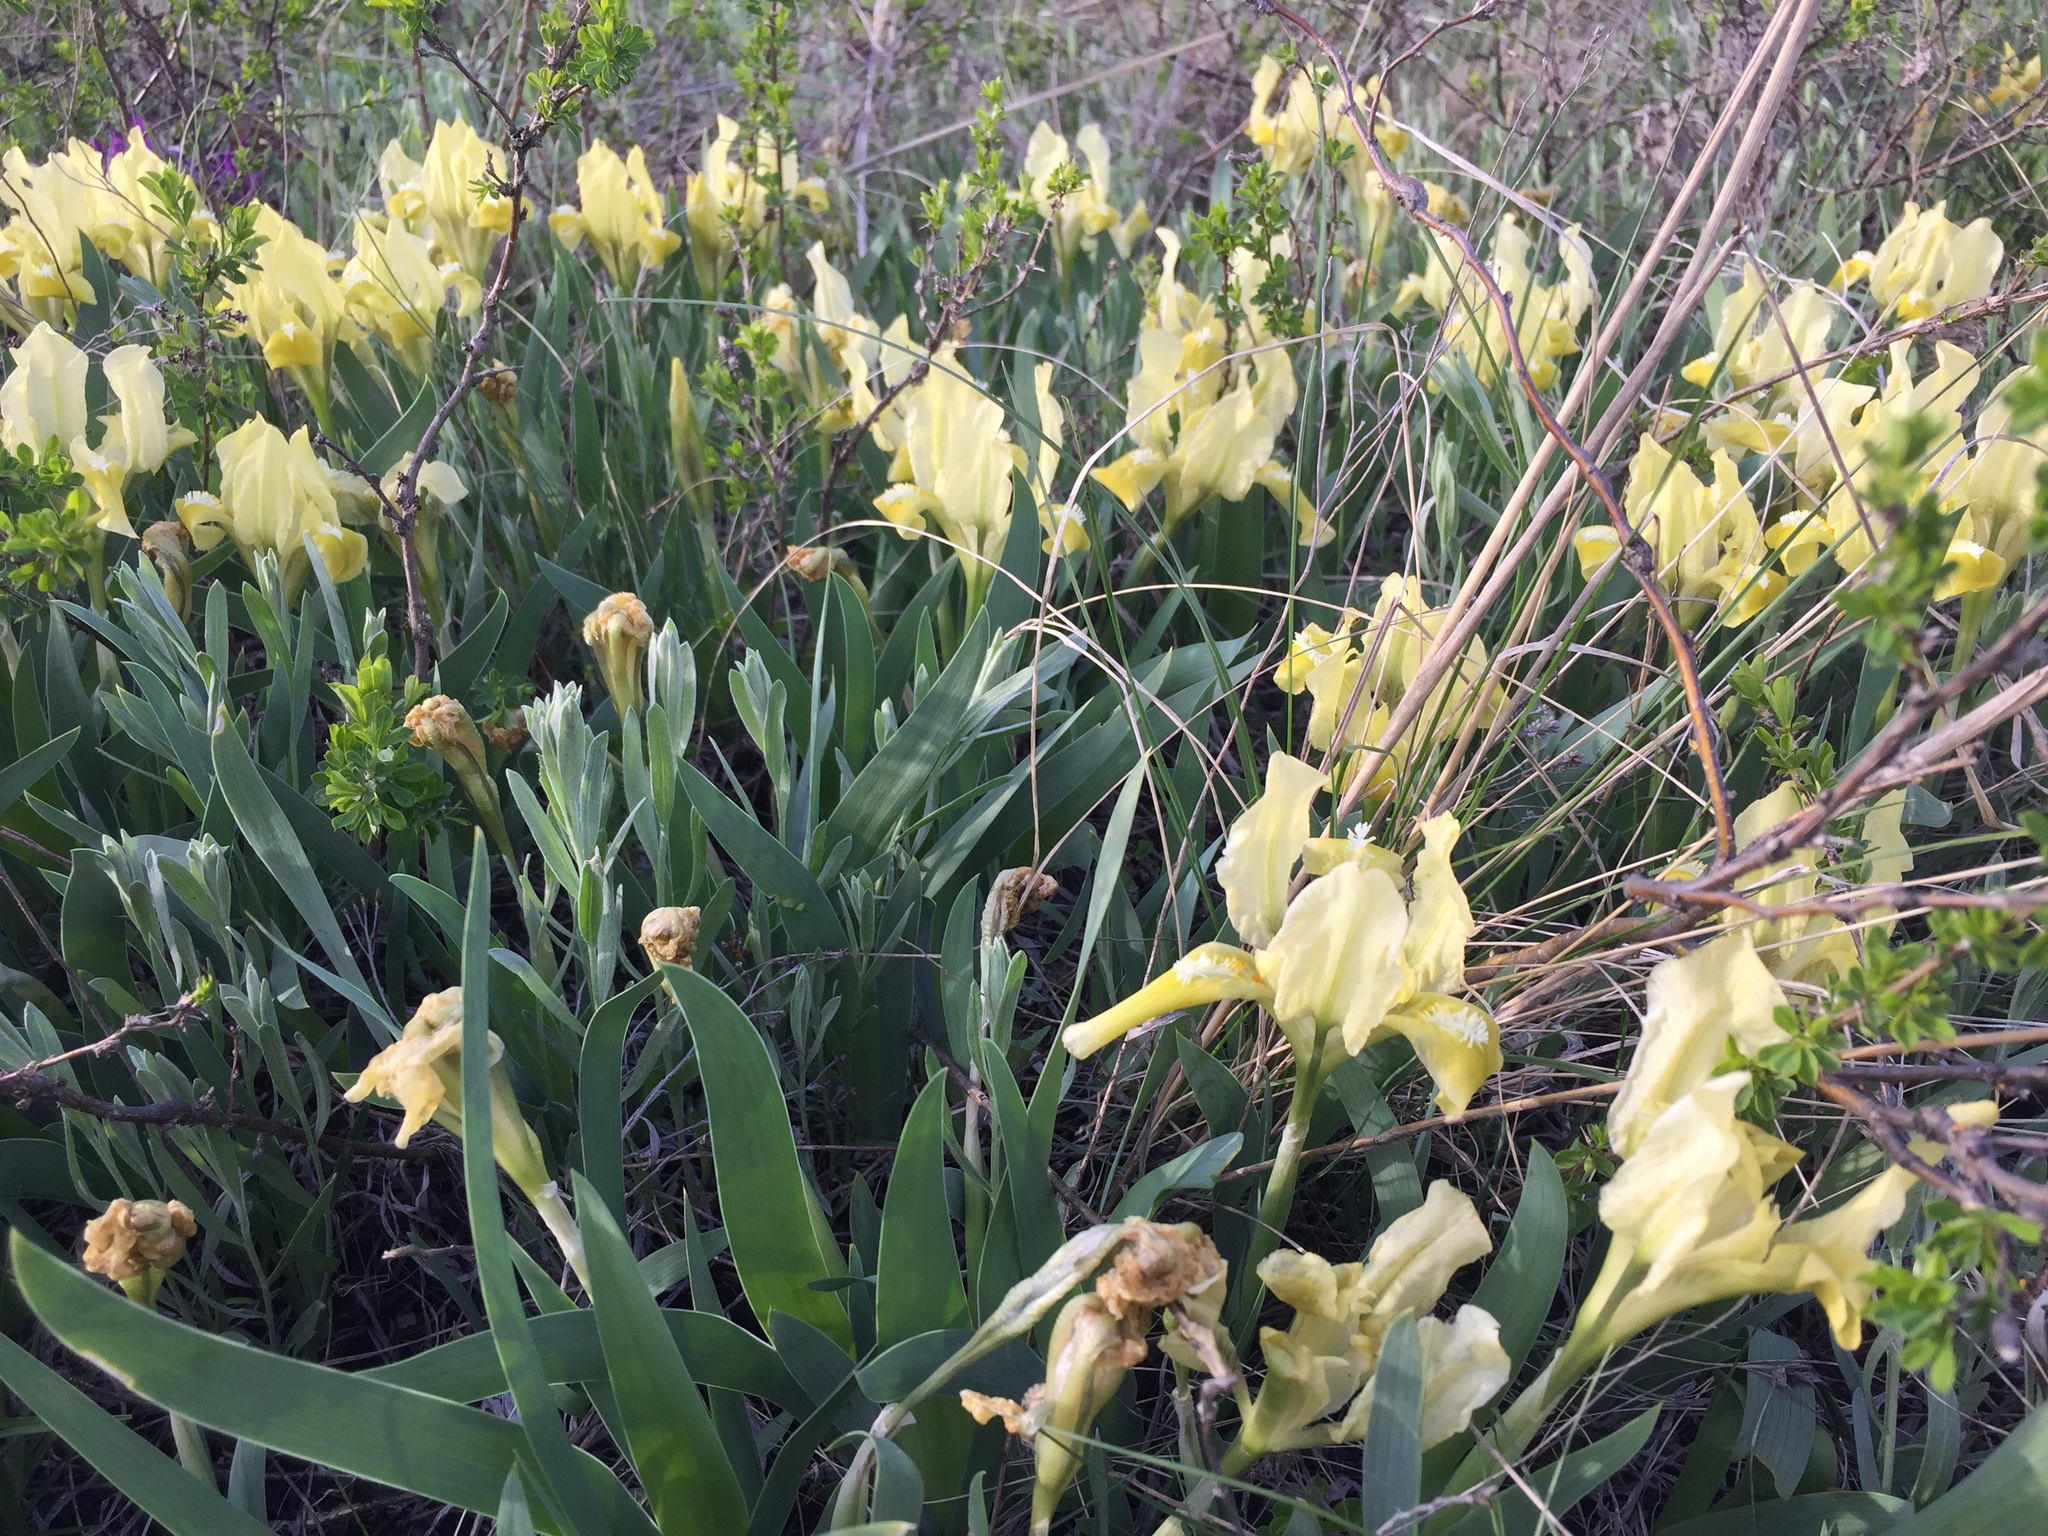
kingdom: Plantae
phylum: Tracheophyta
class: Liliopsida
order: Asparagales
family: Iridaceae
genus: Iris
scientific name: Iris pumila
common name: Dwarf iris
